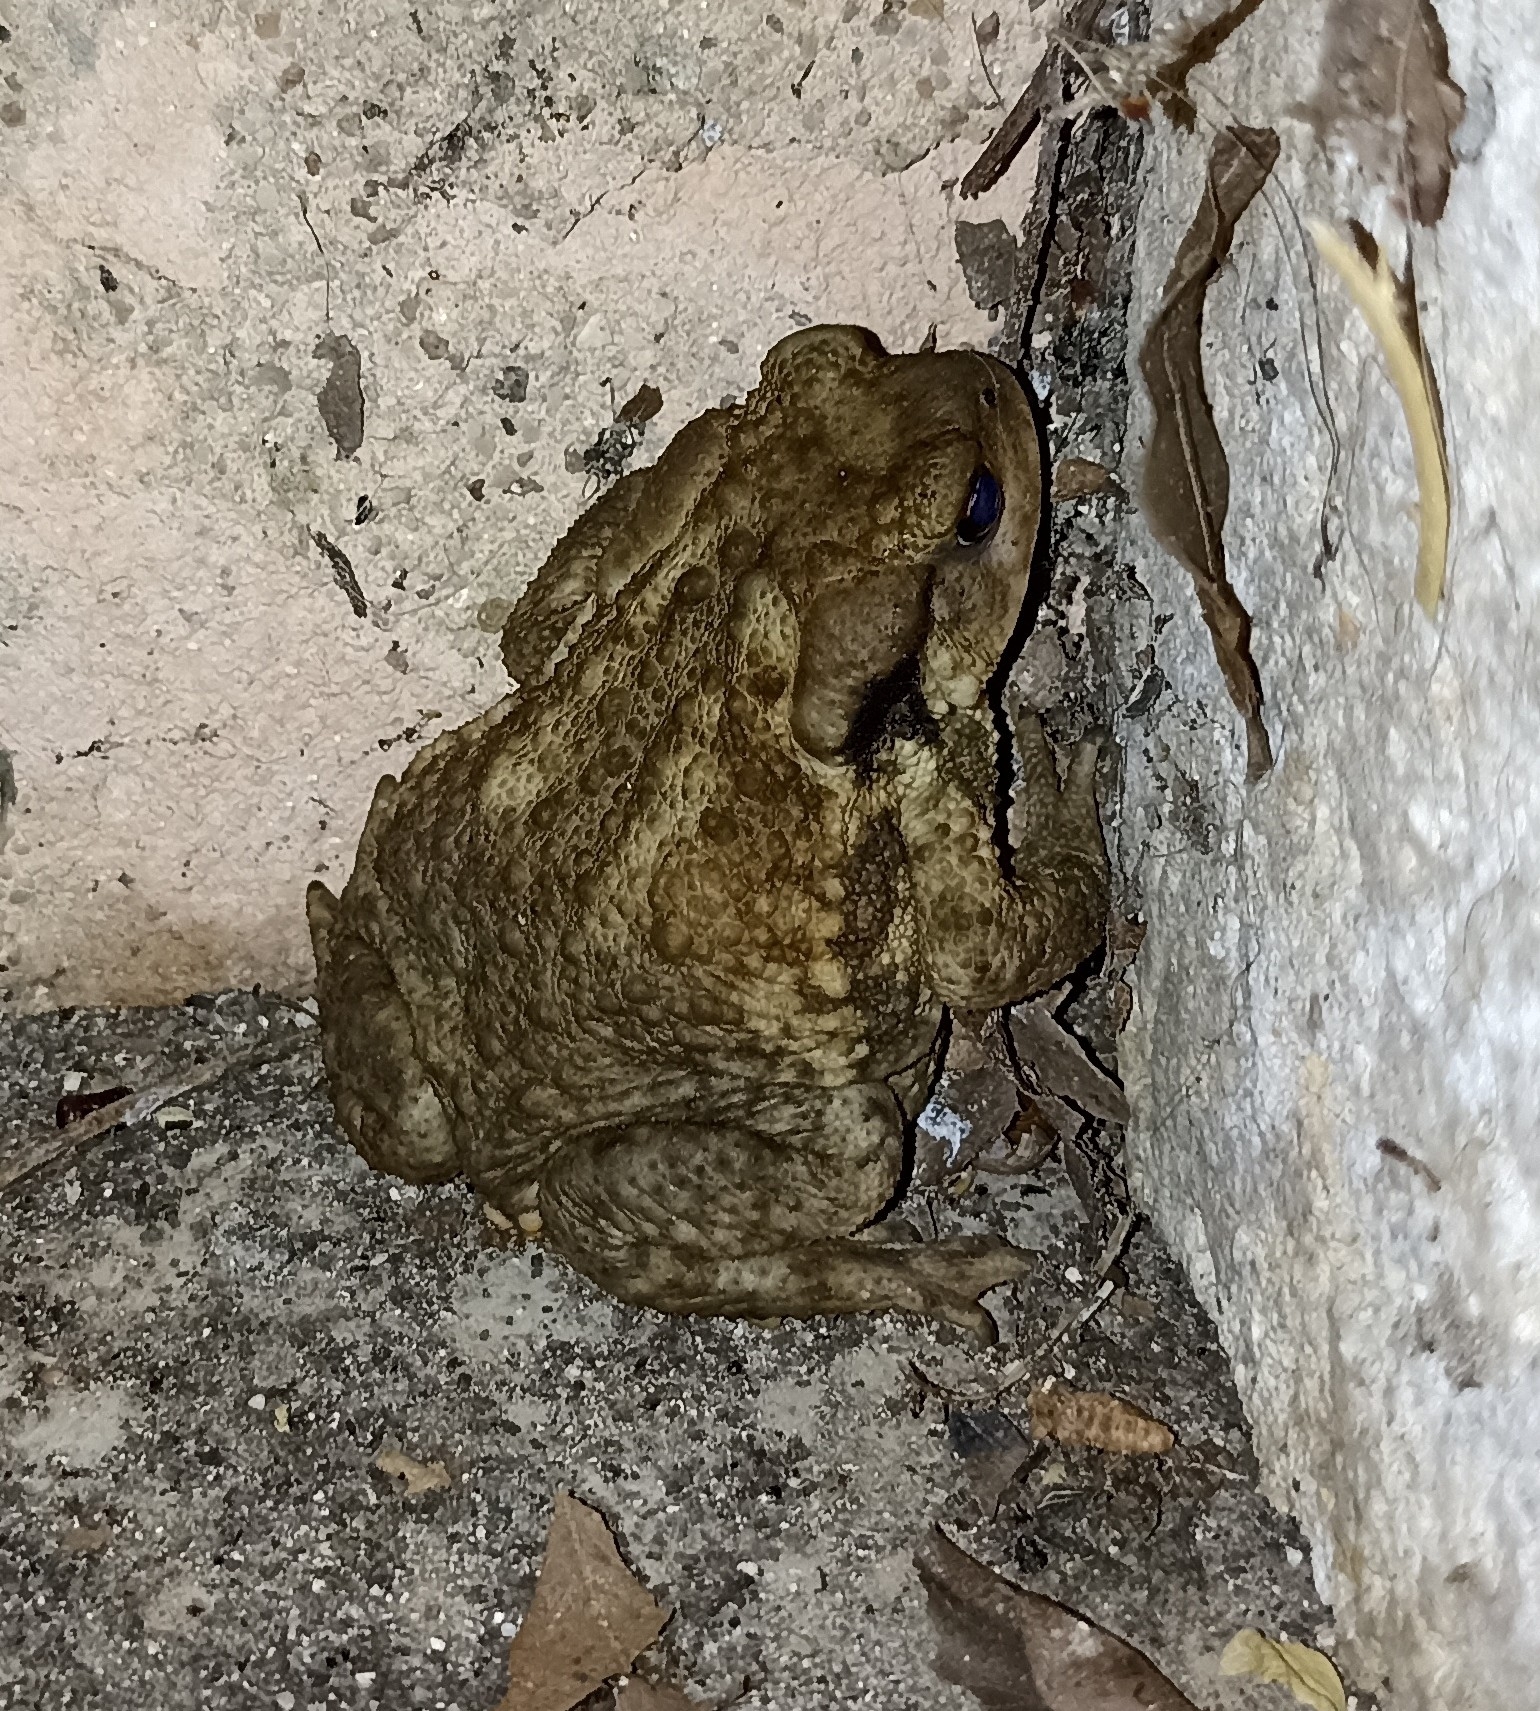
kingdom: Animalia
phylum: Chordata
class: Amphibia
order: Anura
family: Bufonidae
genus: Bufo
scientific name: Bufo spinosus
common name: Western common toad
